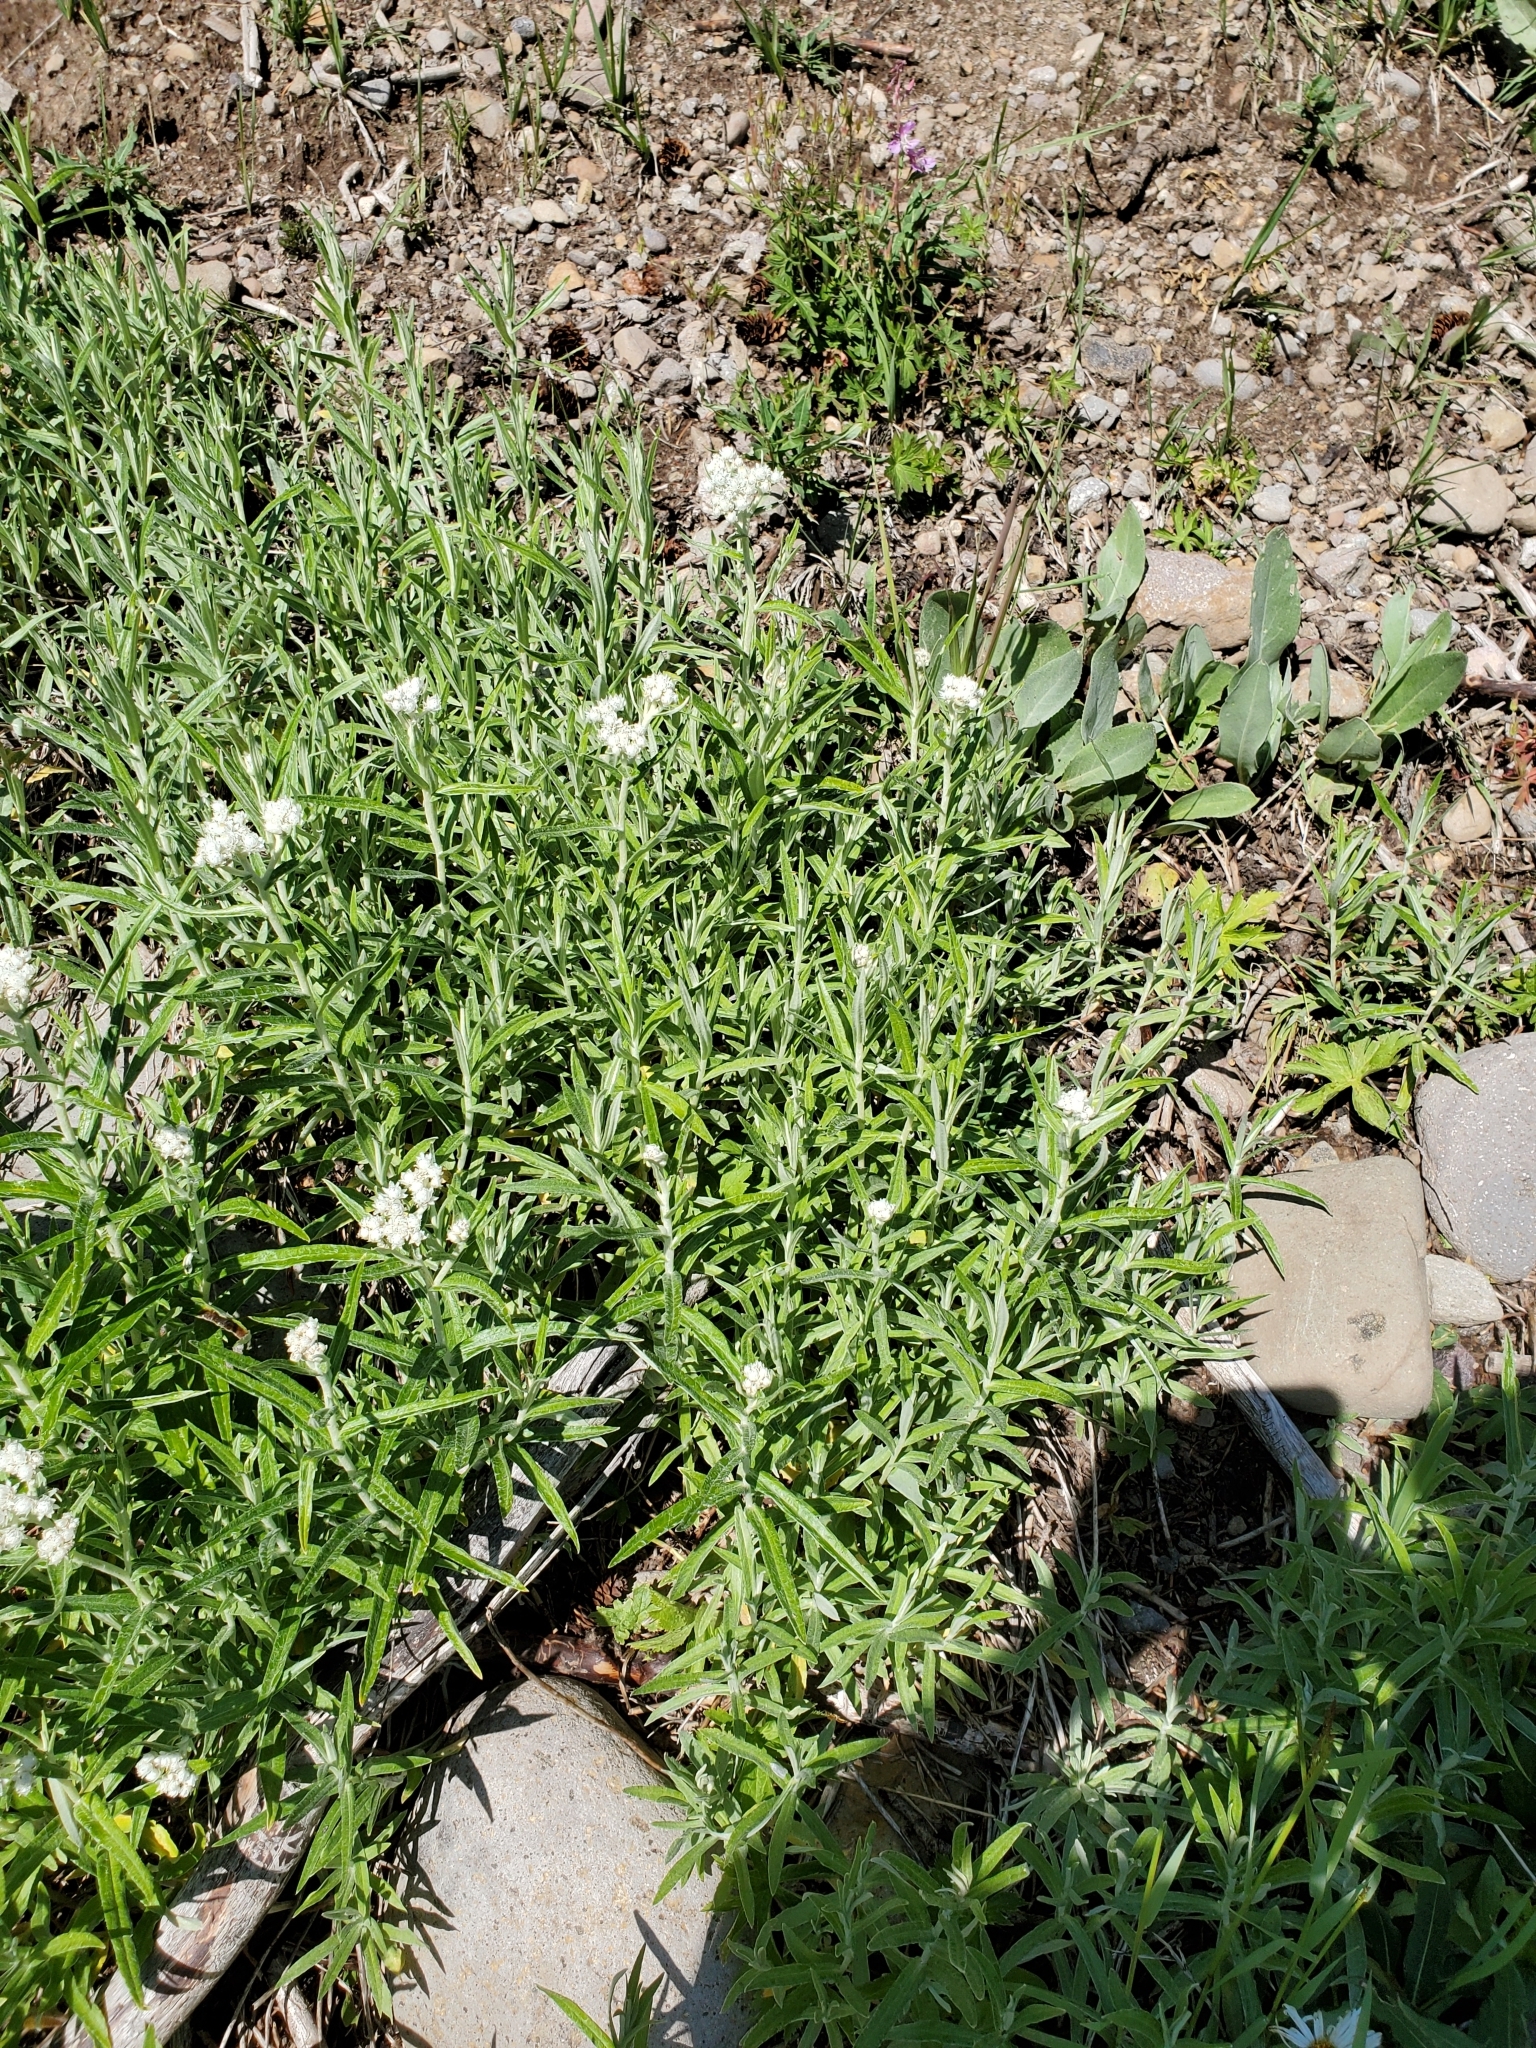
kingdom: Plantae
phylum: Tracheophyta
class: Magnoliopsida
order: Asterales
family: Asteraceae
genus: Anaphalis
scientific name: Anaphalis margaritacea
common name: Pearly everlasting
